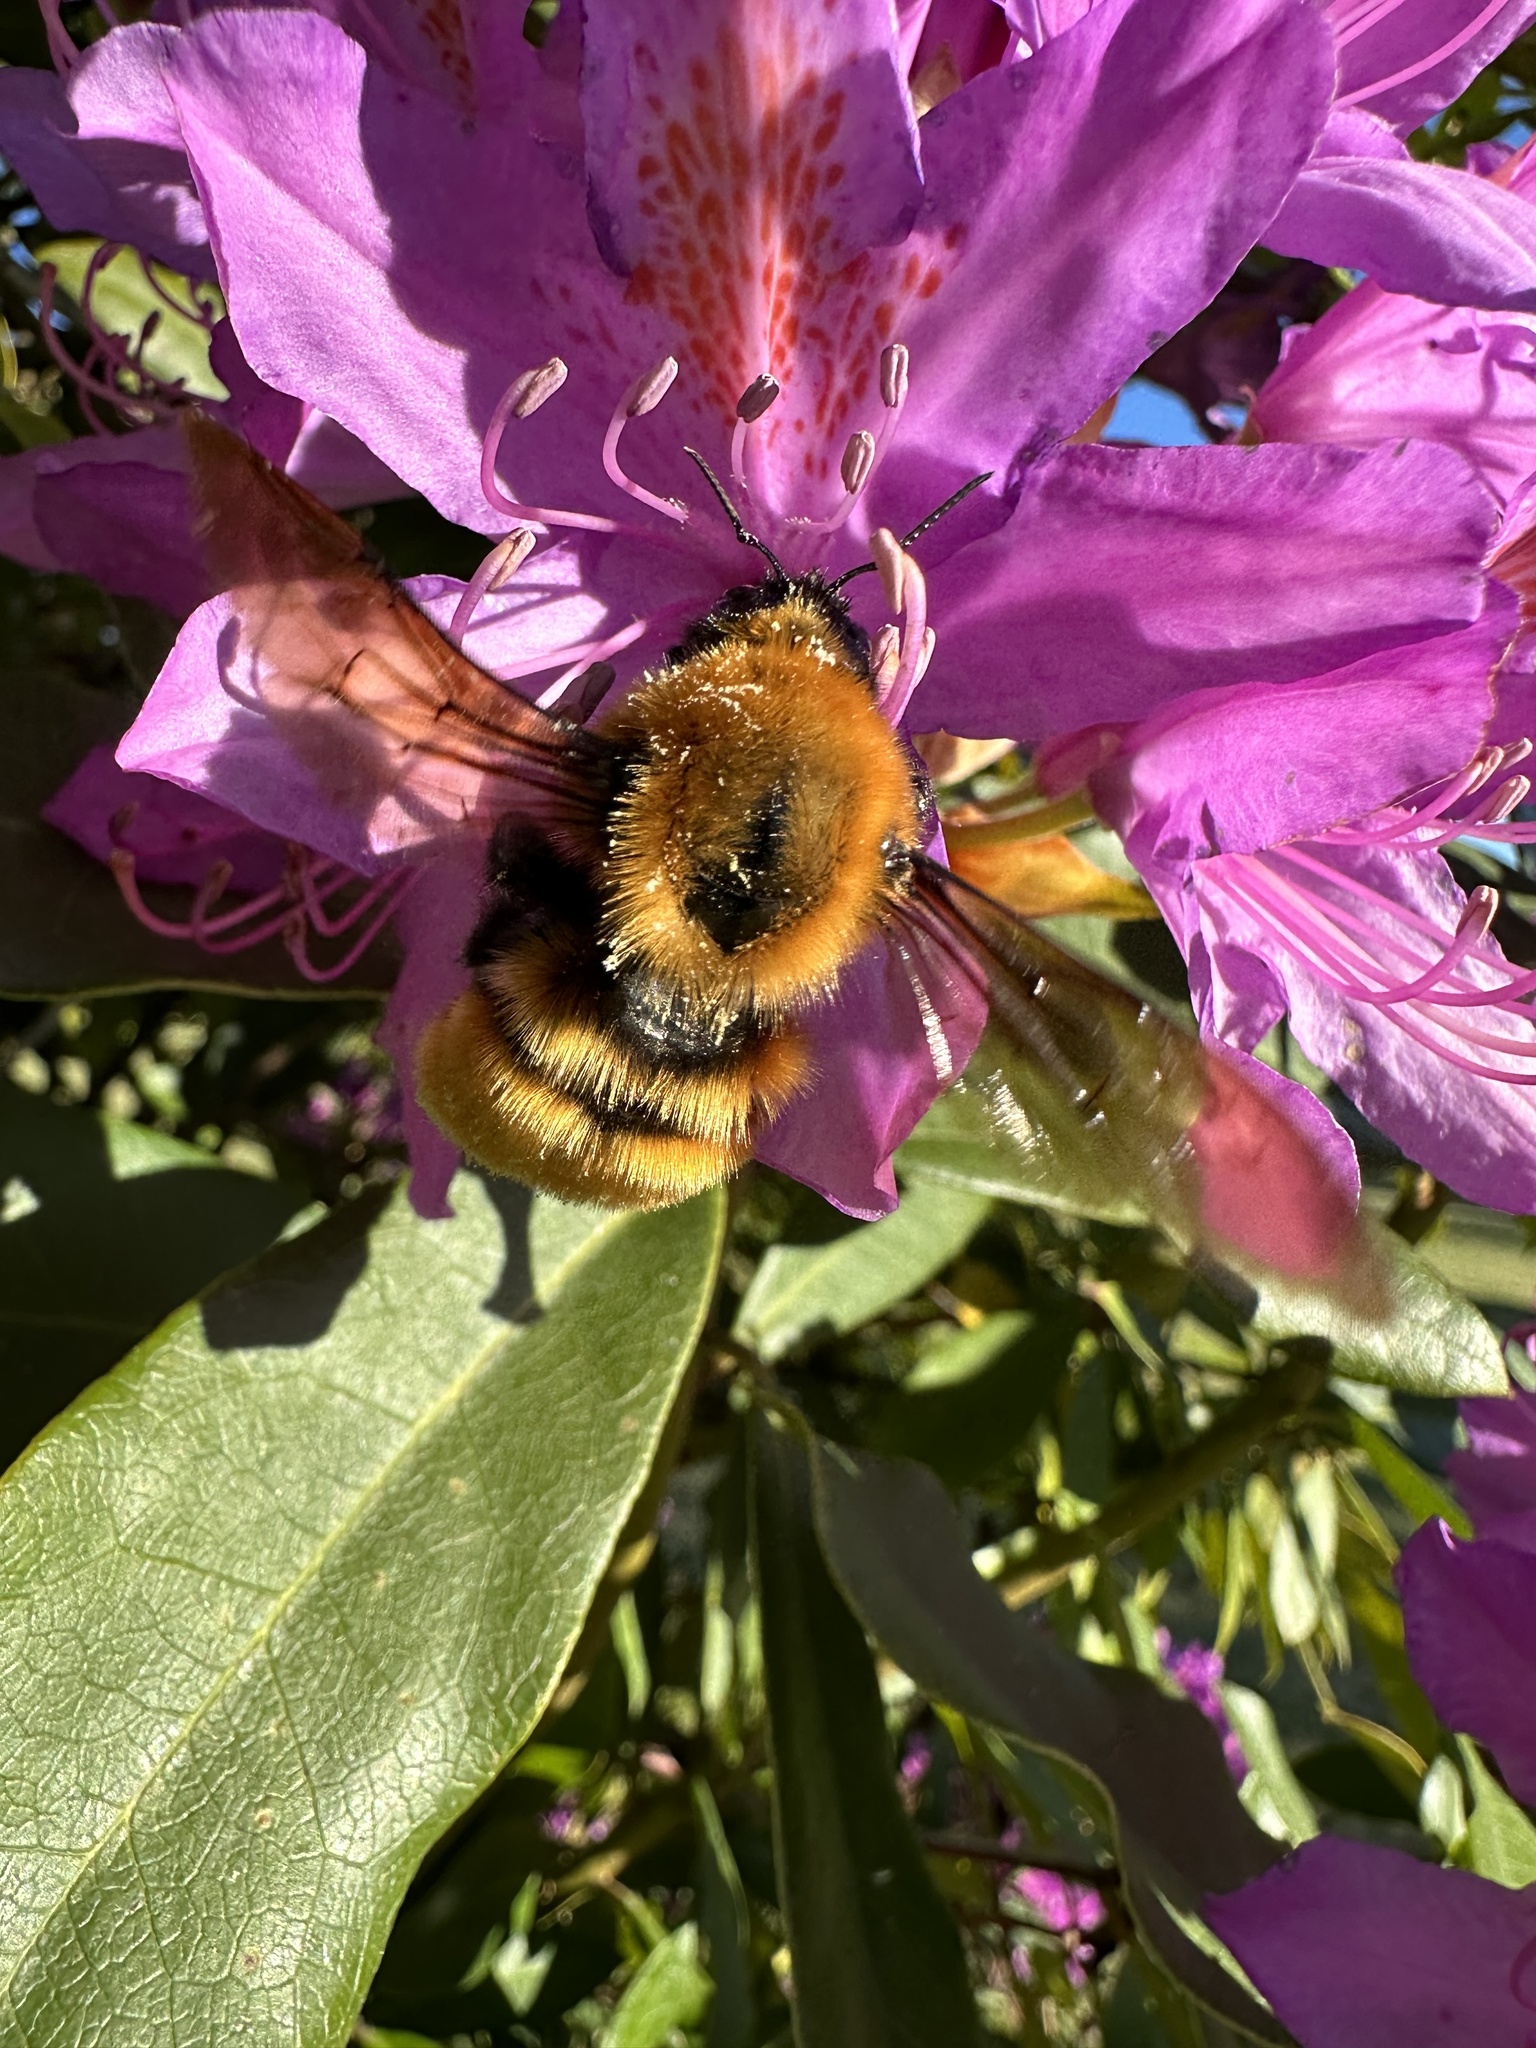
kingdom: Animalia
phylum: Arthropoda
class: Insecta
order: Hymenoptera
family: Apidae
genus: Bombus
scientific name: Bombus dahlbomii
